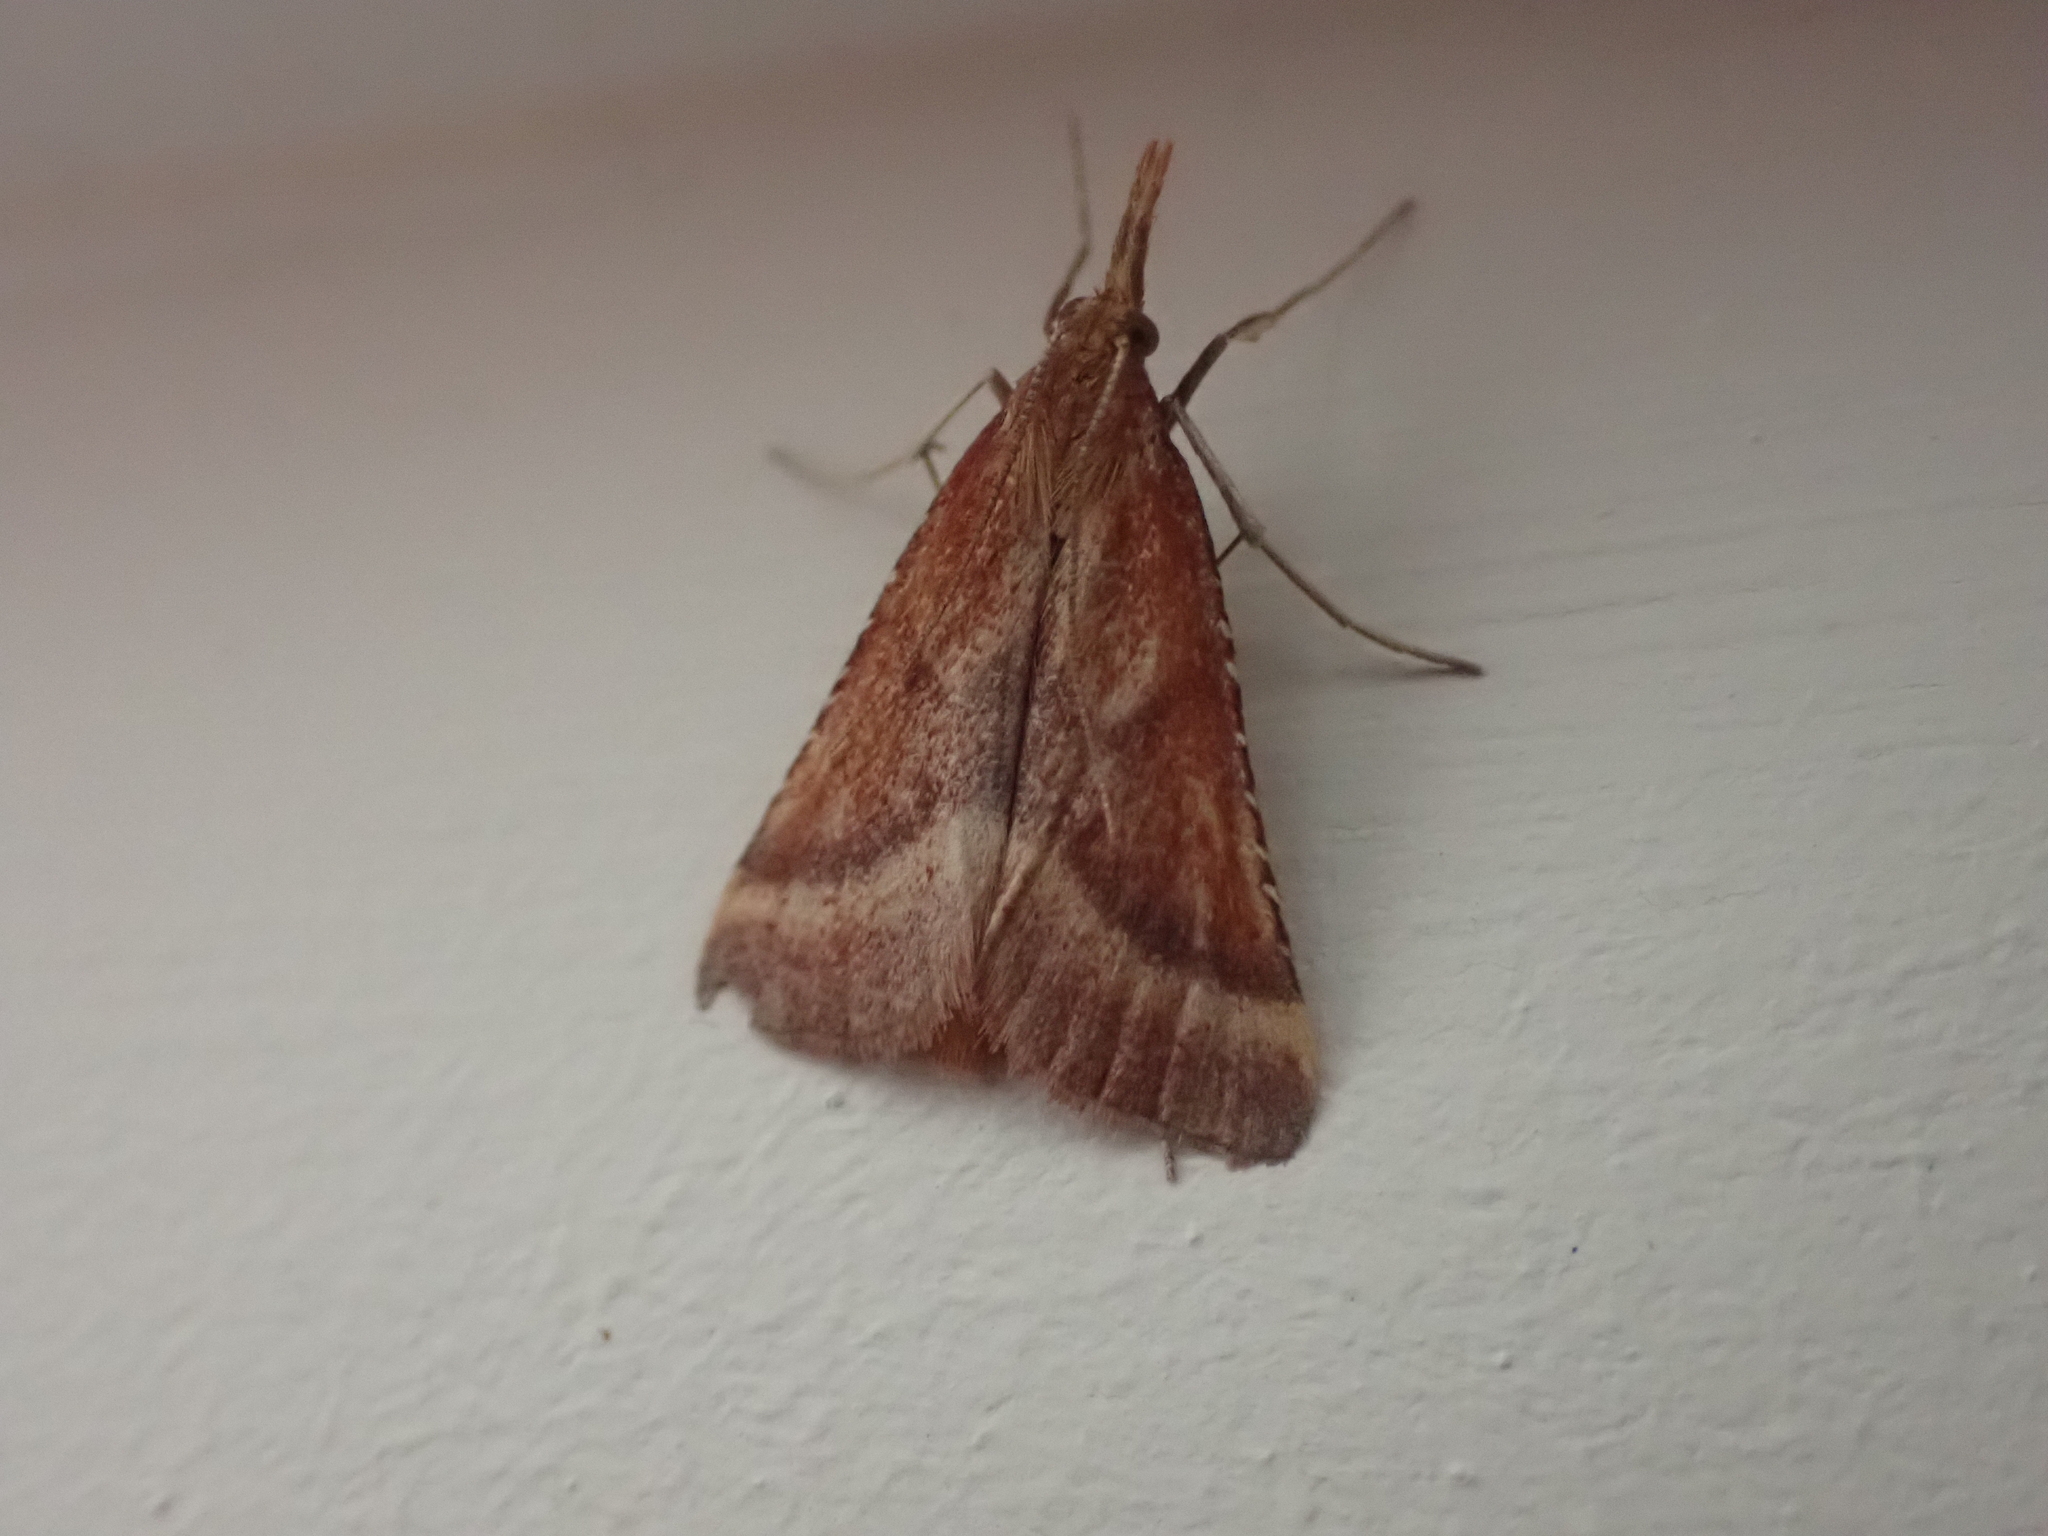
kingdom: Animalia
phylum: Arthropoda
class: Insecta
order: Lepidoptera
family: Pyralidae
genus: Synaphe
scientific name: Synaphe punctalis
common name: Long-legged tabby
